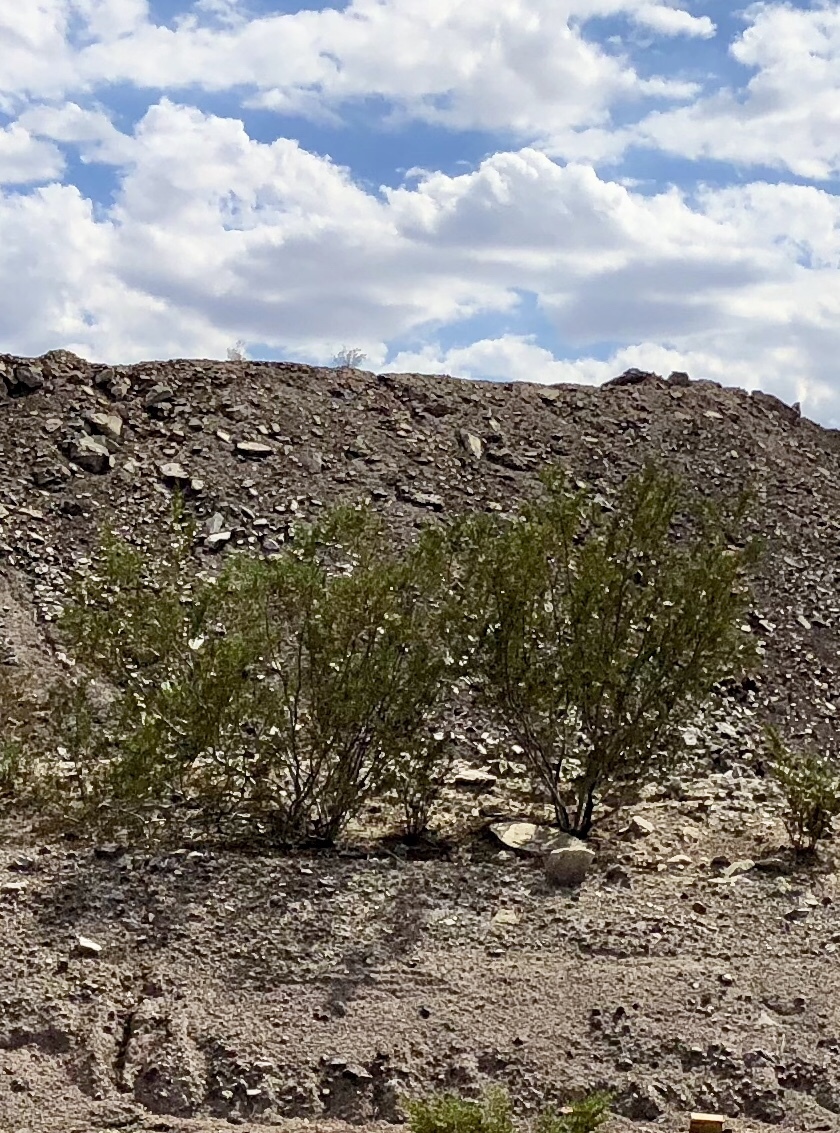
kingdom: Plantae
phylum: Tracheophyta
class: Magnoliopsida
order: Zygophyllales
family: Zygophyllaceae
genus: Larrea
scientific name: Larrea tridentata
